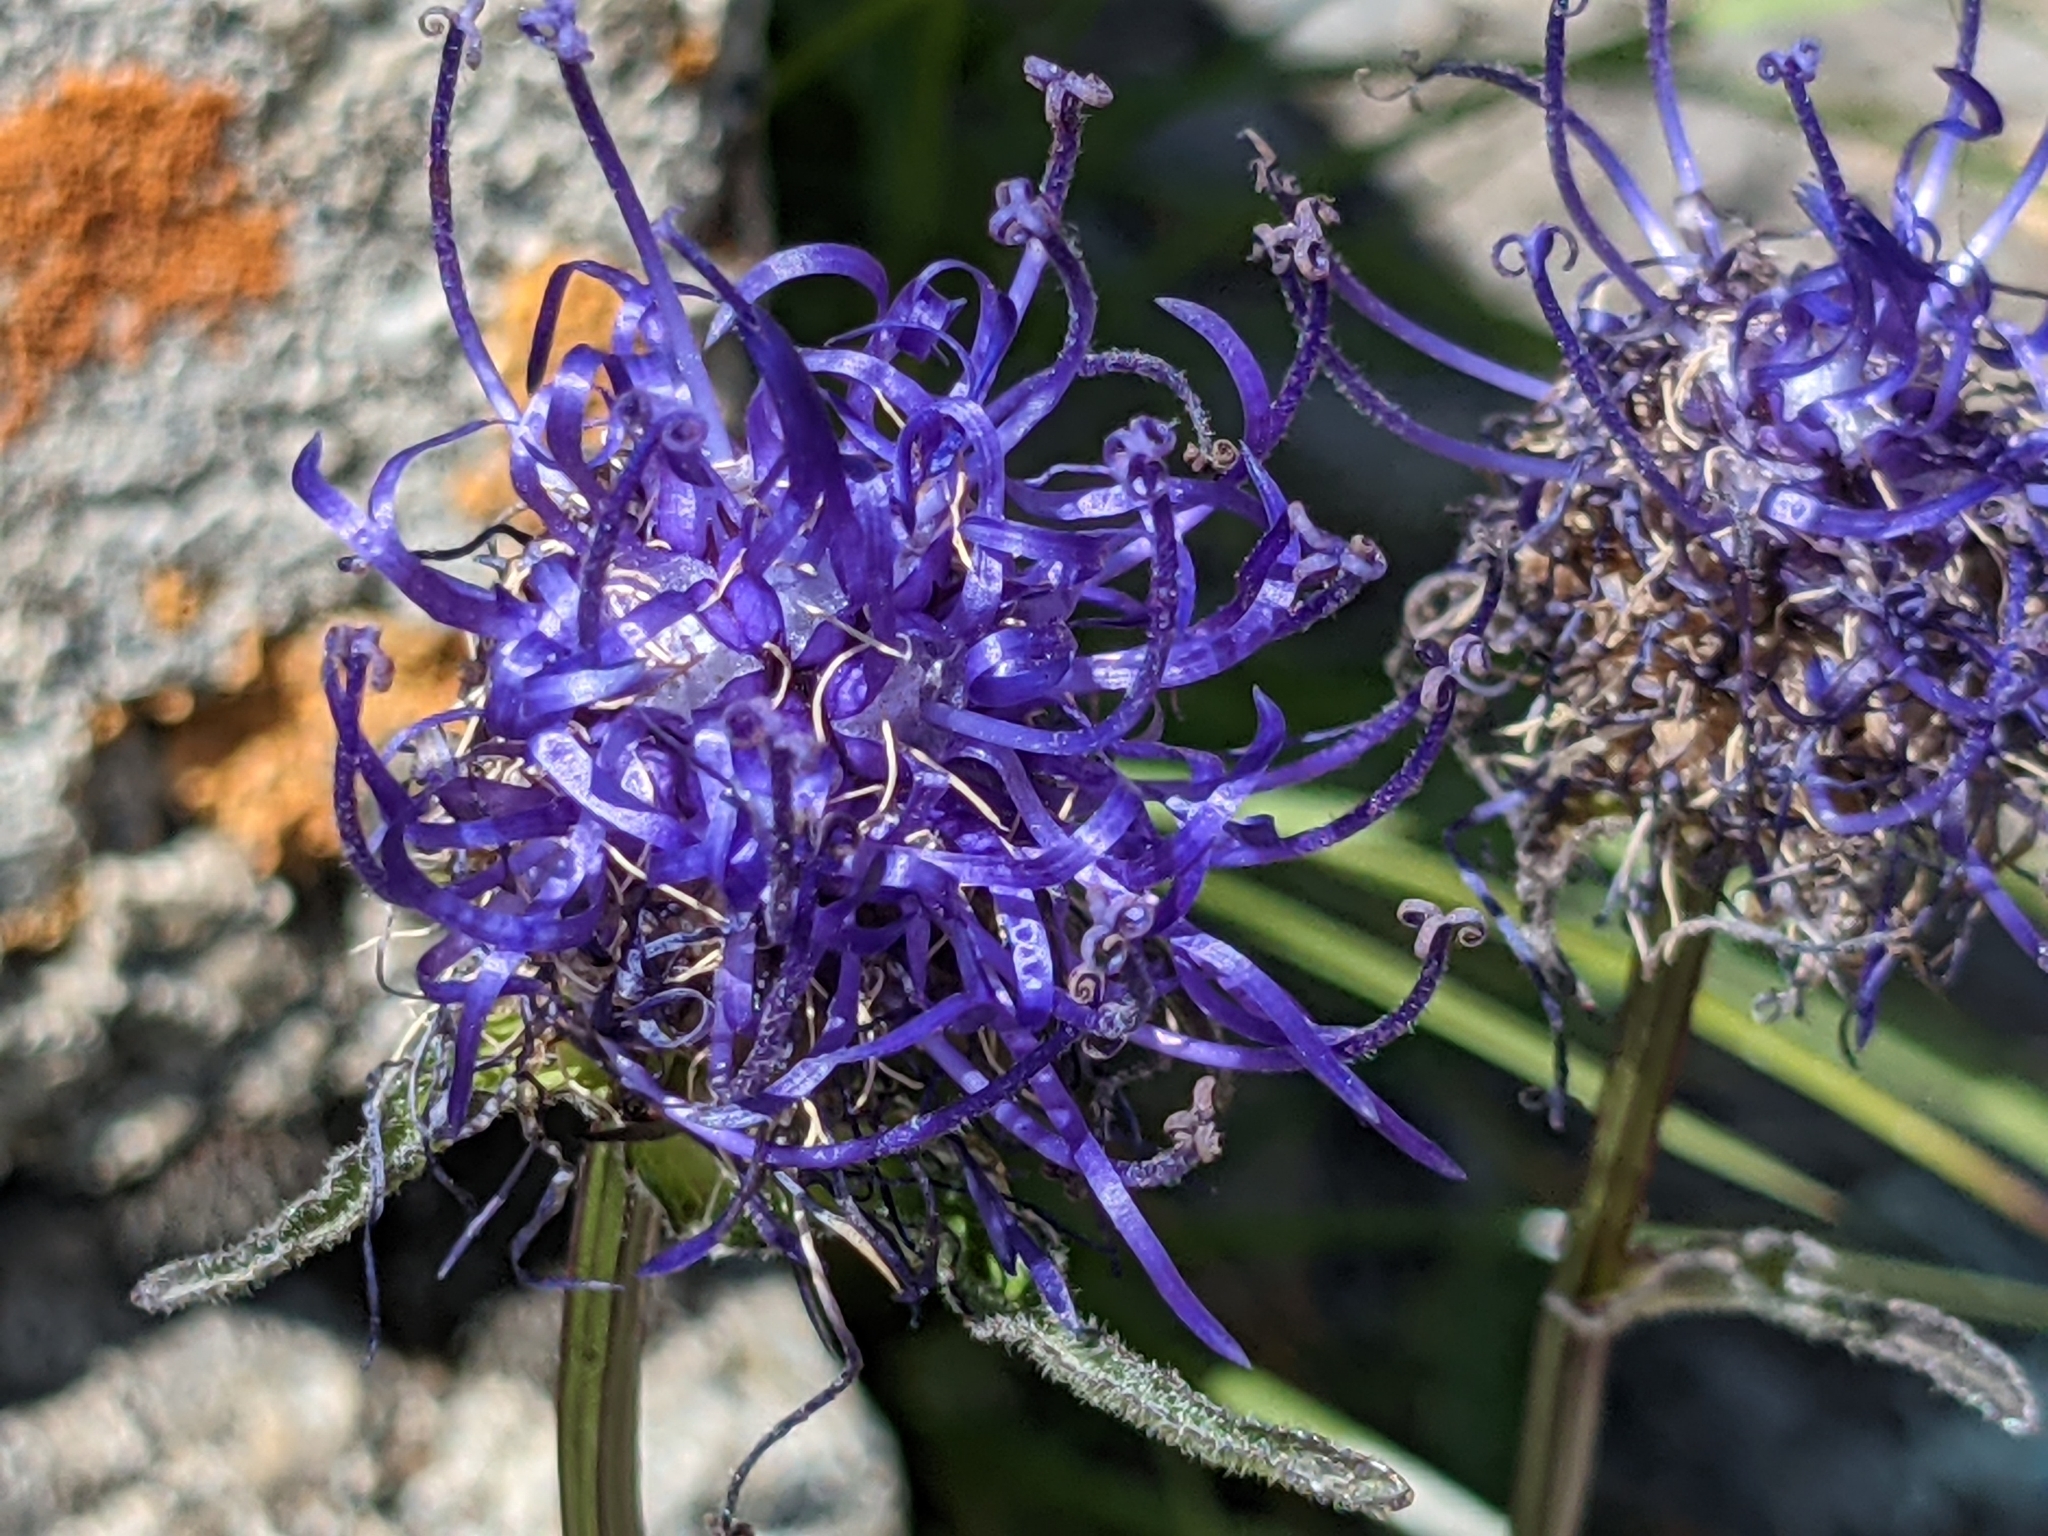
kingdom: Plantae
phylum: Tracheophyta
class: Magnoliopsida
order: Asterales
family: Campanulaceae
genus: Phyteuma
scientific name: Phyteuma orbiculare
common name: Round-headed rampion
